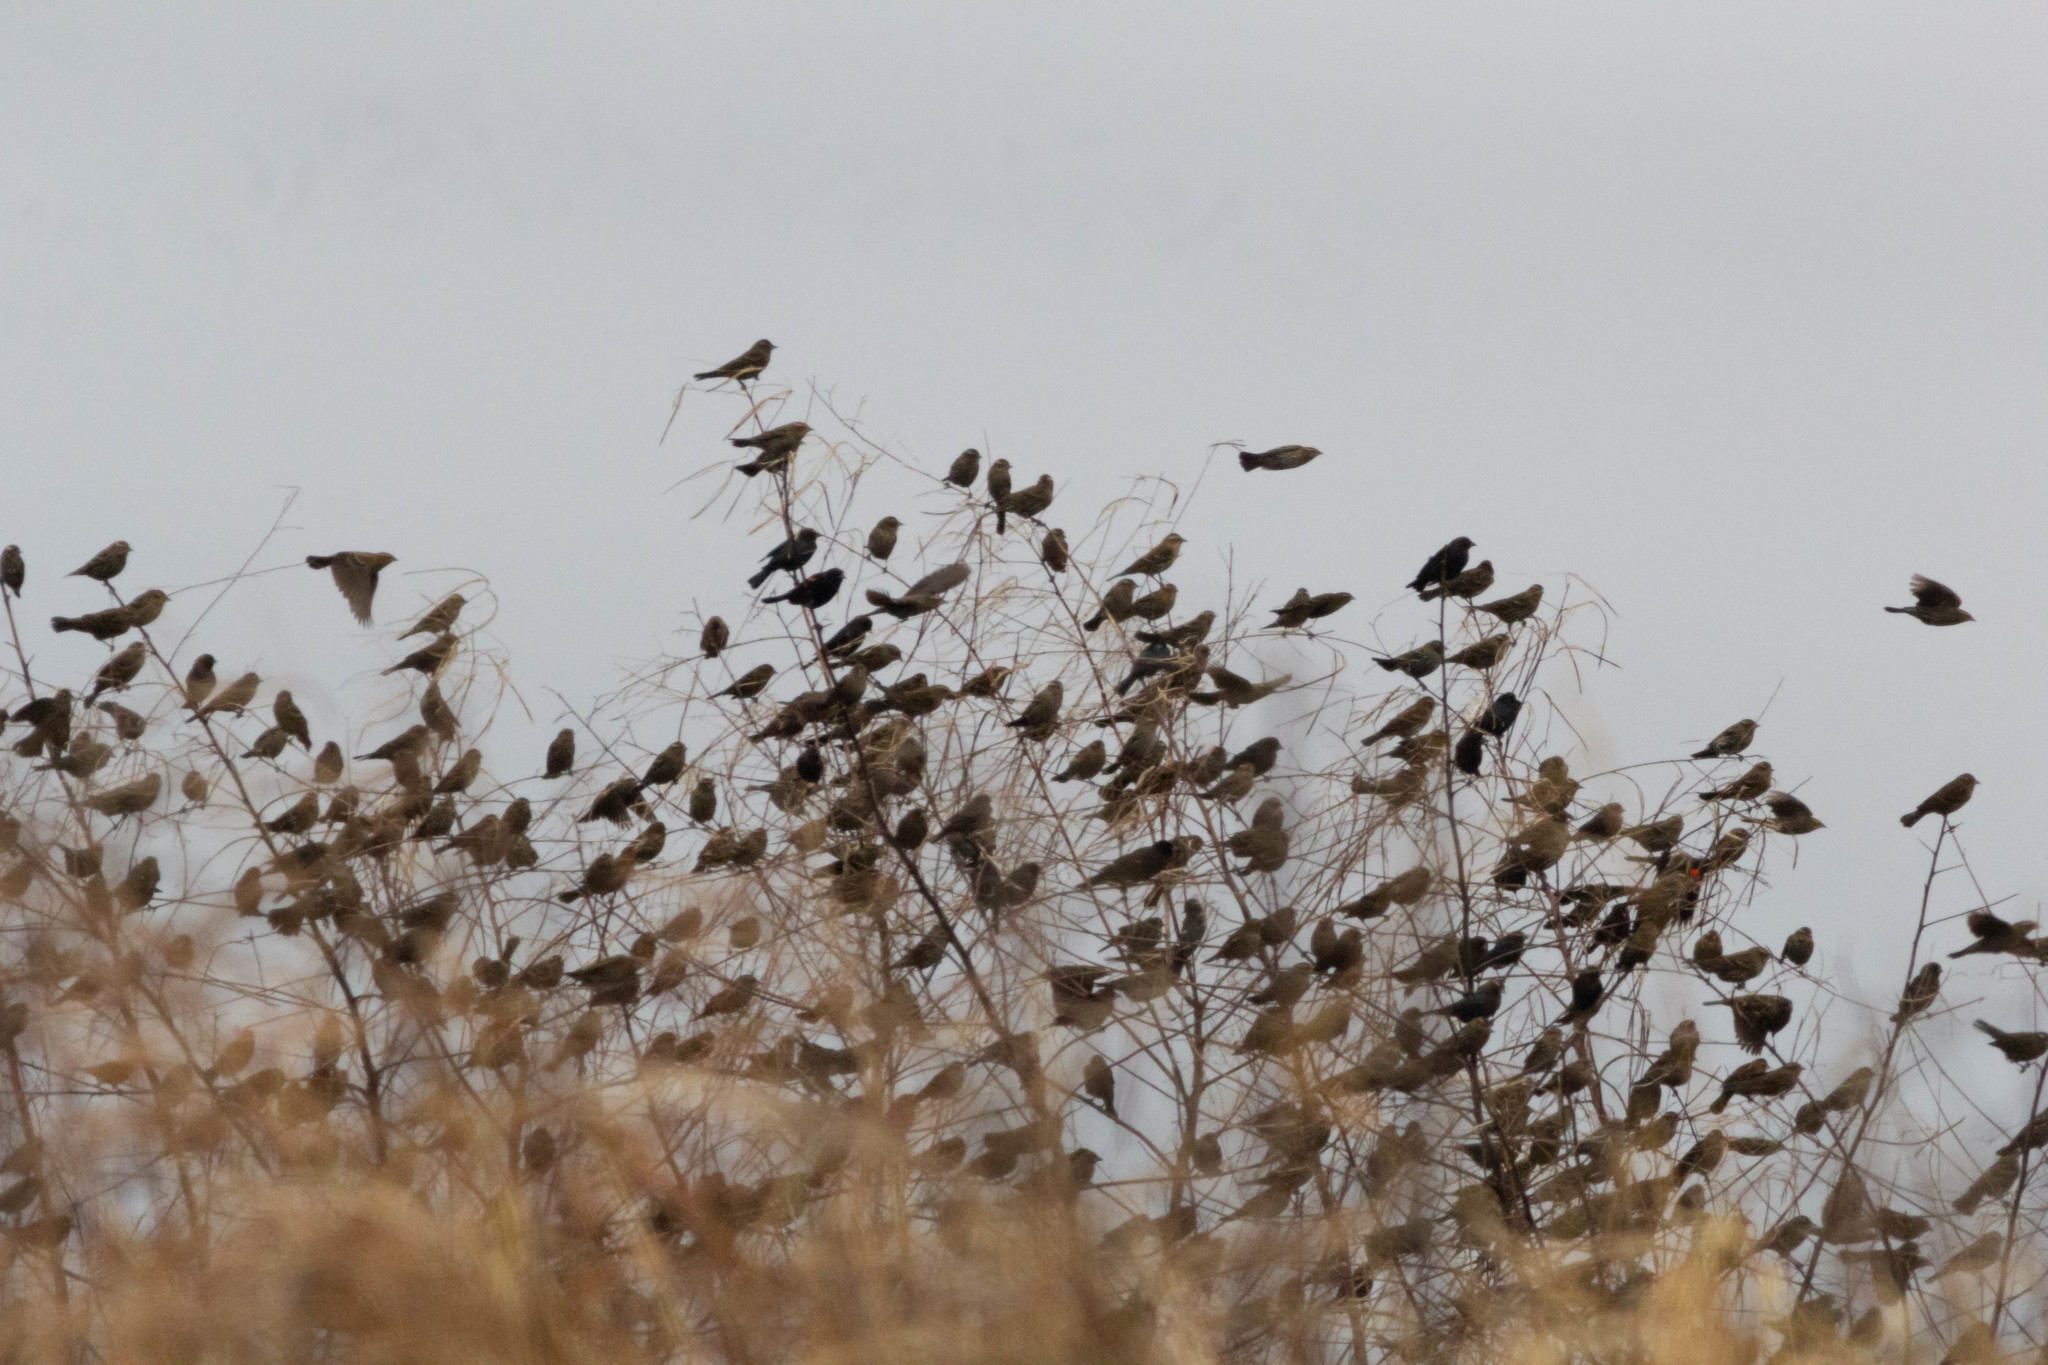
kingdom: Animalia
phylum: Chordata
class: Aves
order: Passeriformes
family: Icteridae
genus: Agelaius
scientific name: Agelaius phoeniceus
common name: Red-winged blackbird
